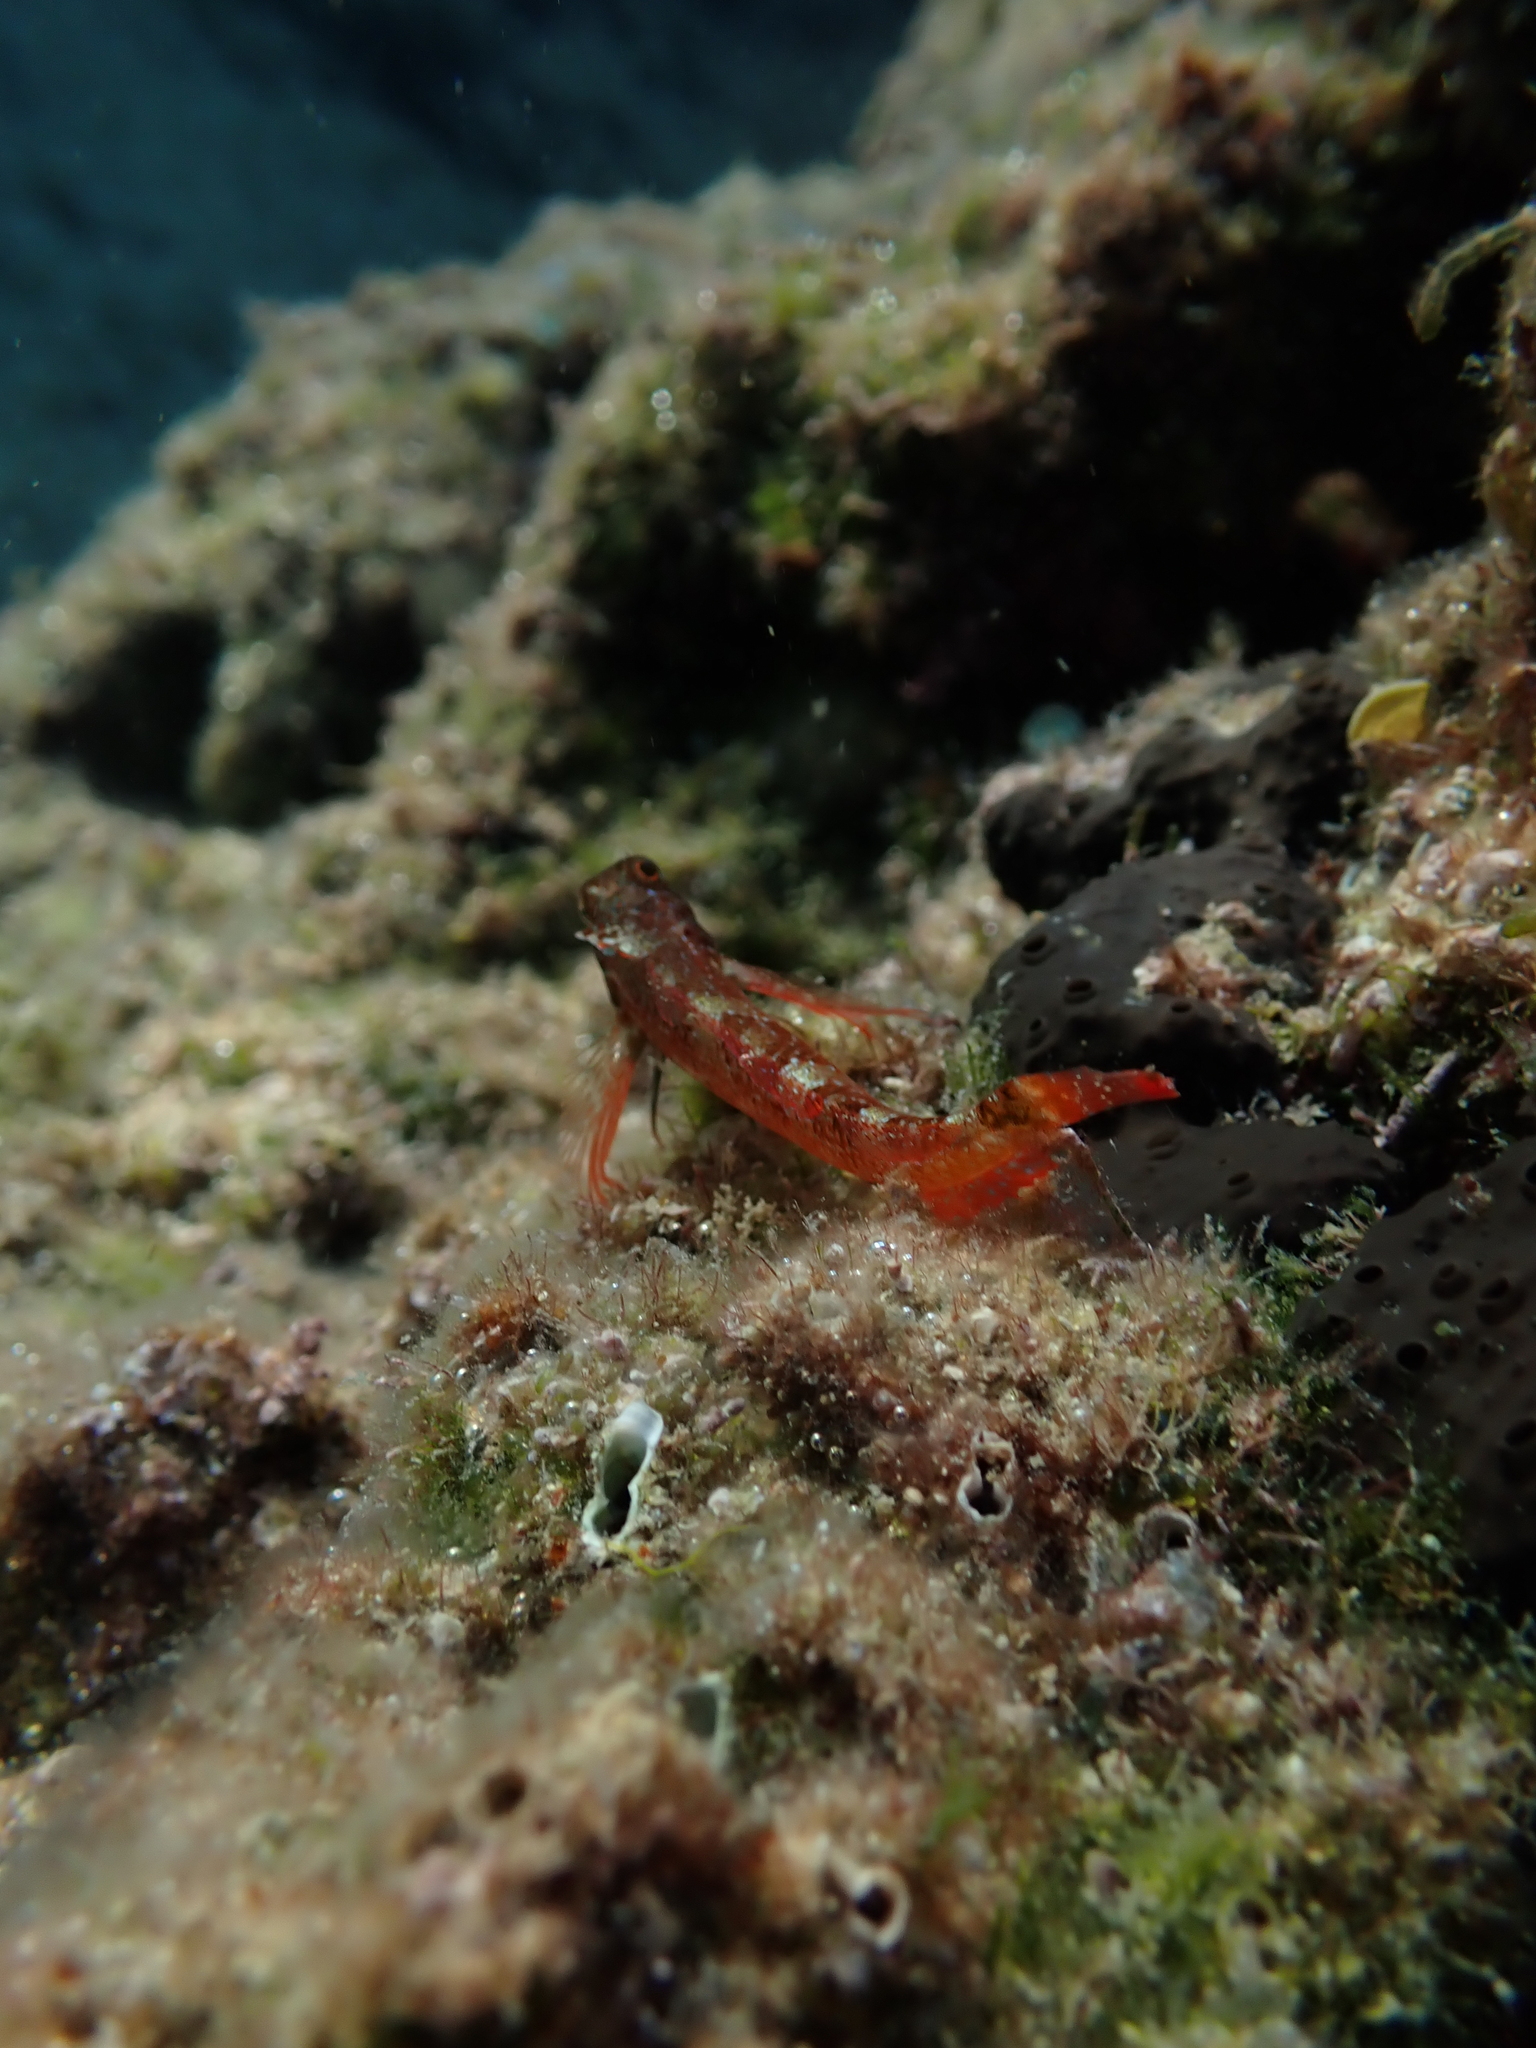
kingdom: Animalia
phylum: Chordata
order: Perciformes
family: Tripterygiidae
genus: Tripterygion
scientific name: Tripterygion tripteronotum
